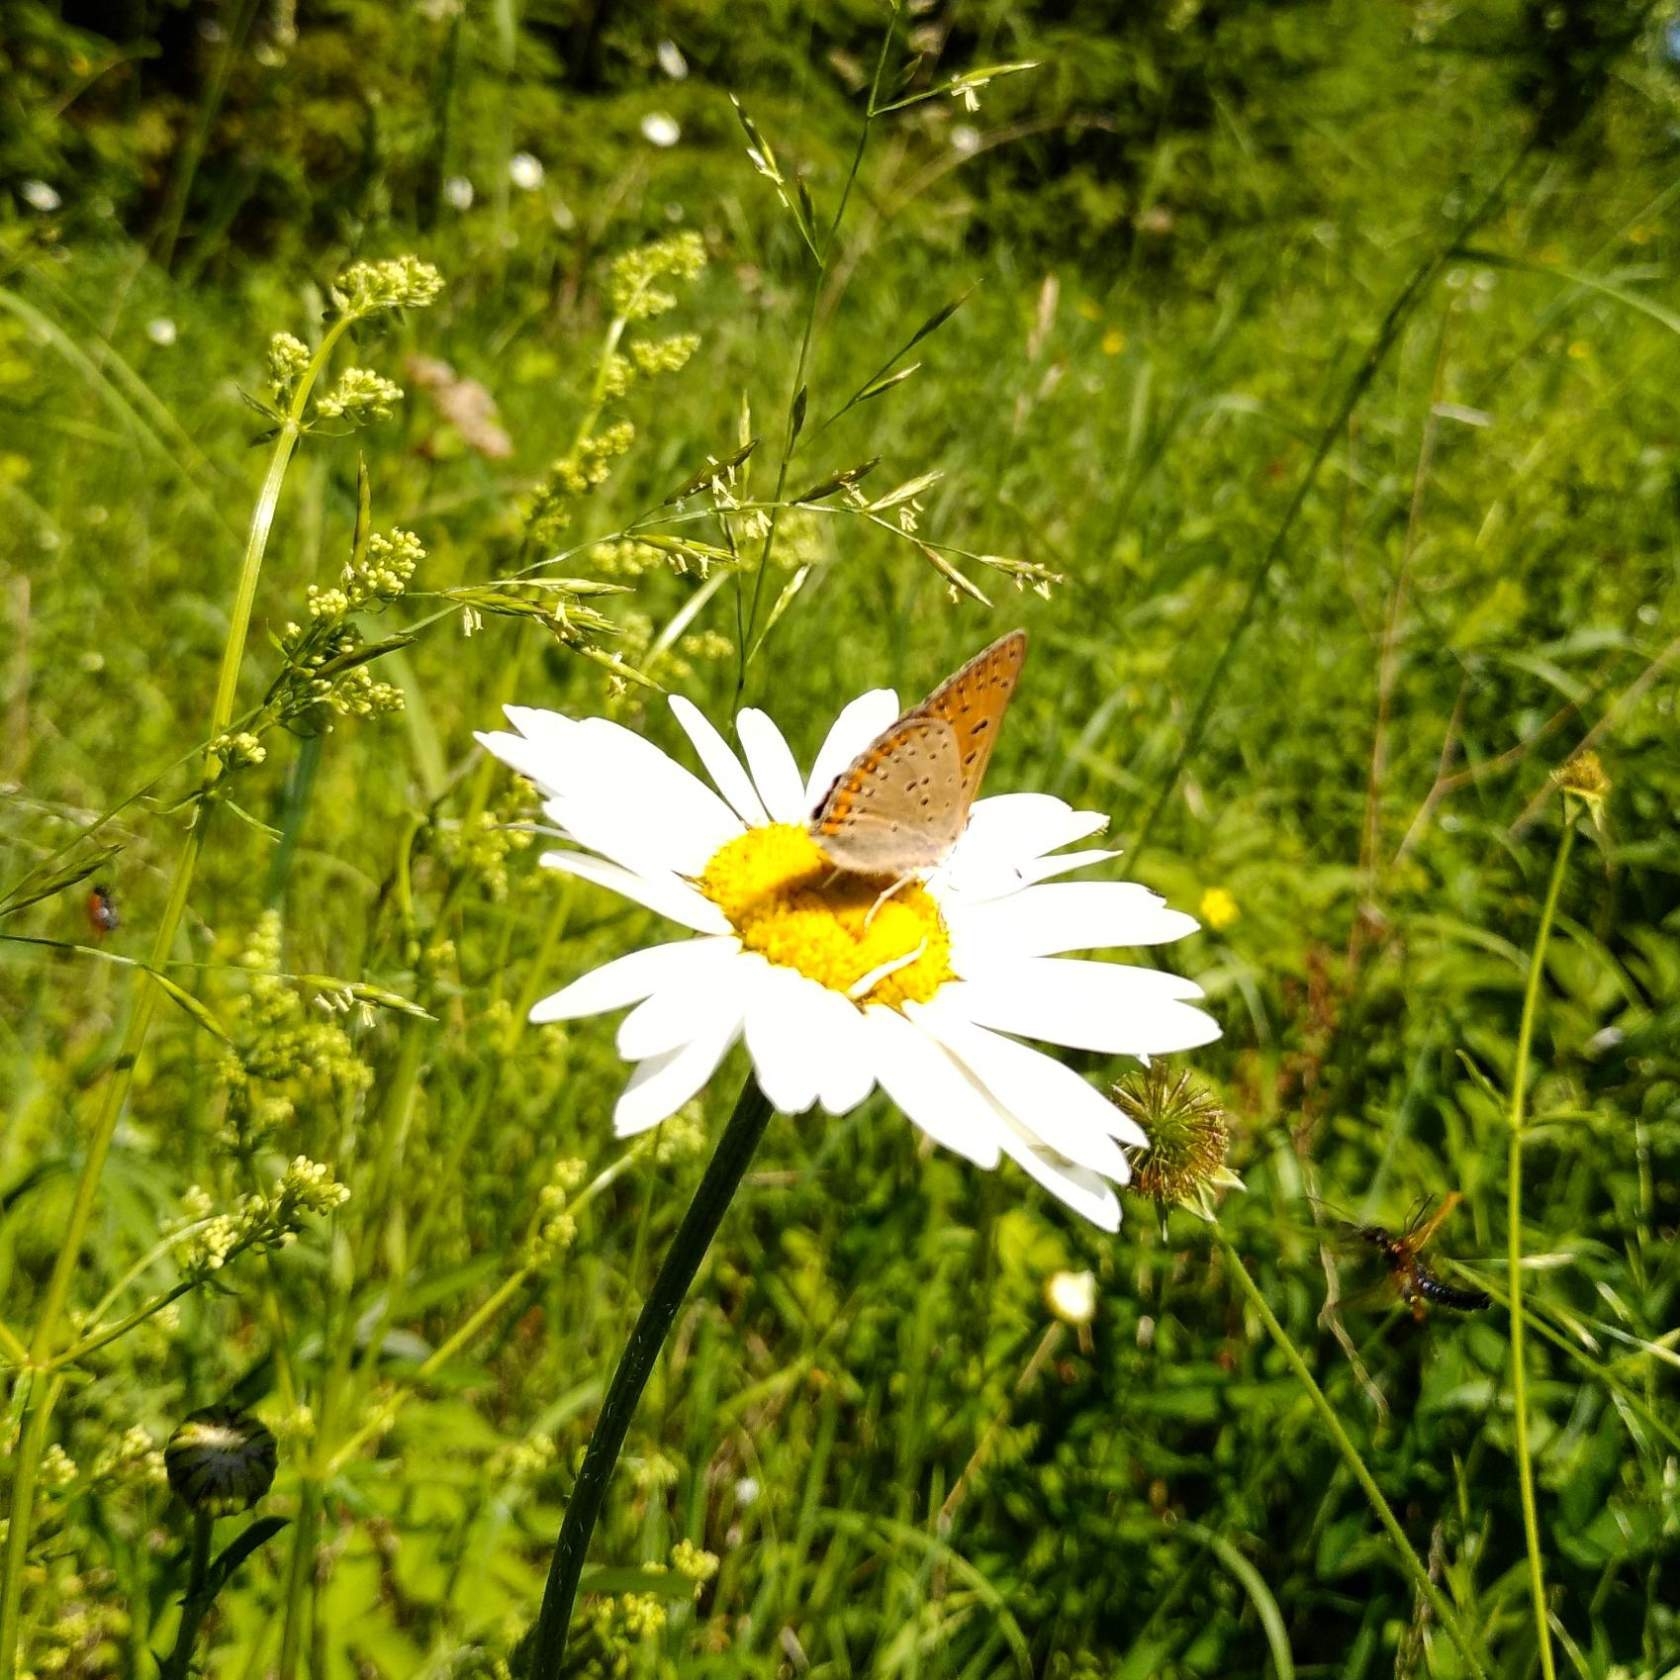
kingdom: Animalia
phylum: Arthropoda
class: Insecta
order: Lepidoptera
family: Lycaenidae
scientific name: Lycaenidae
